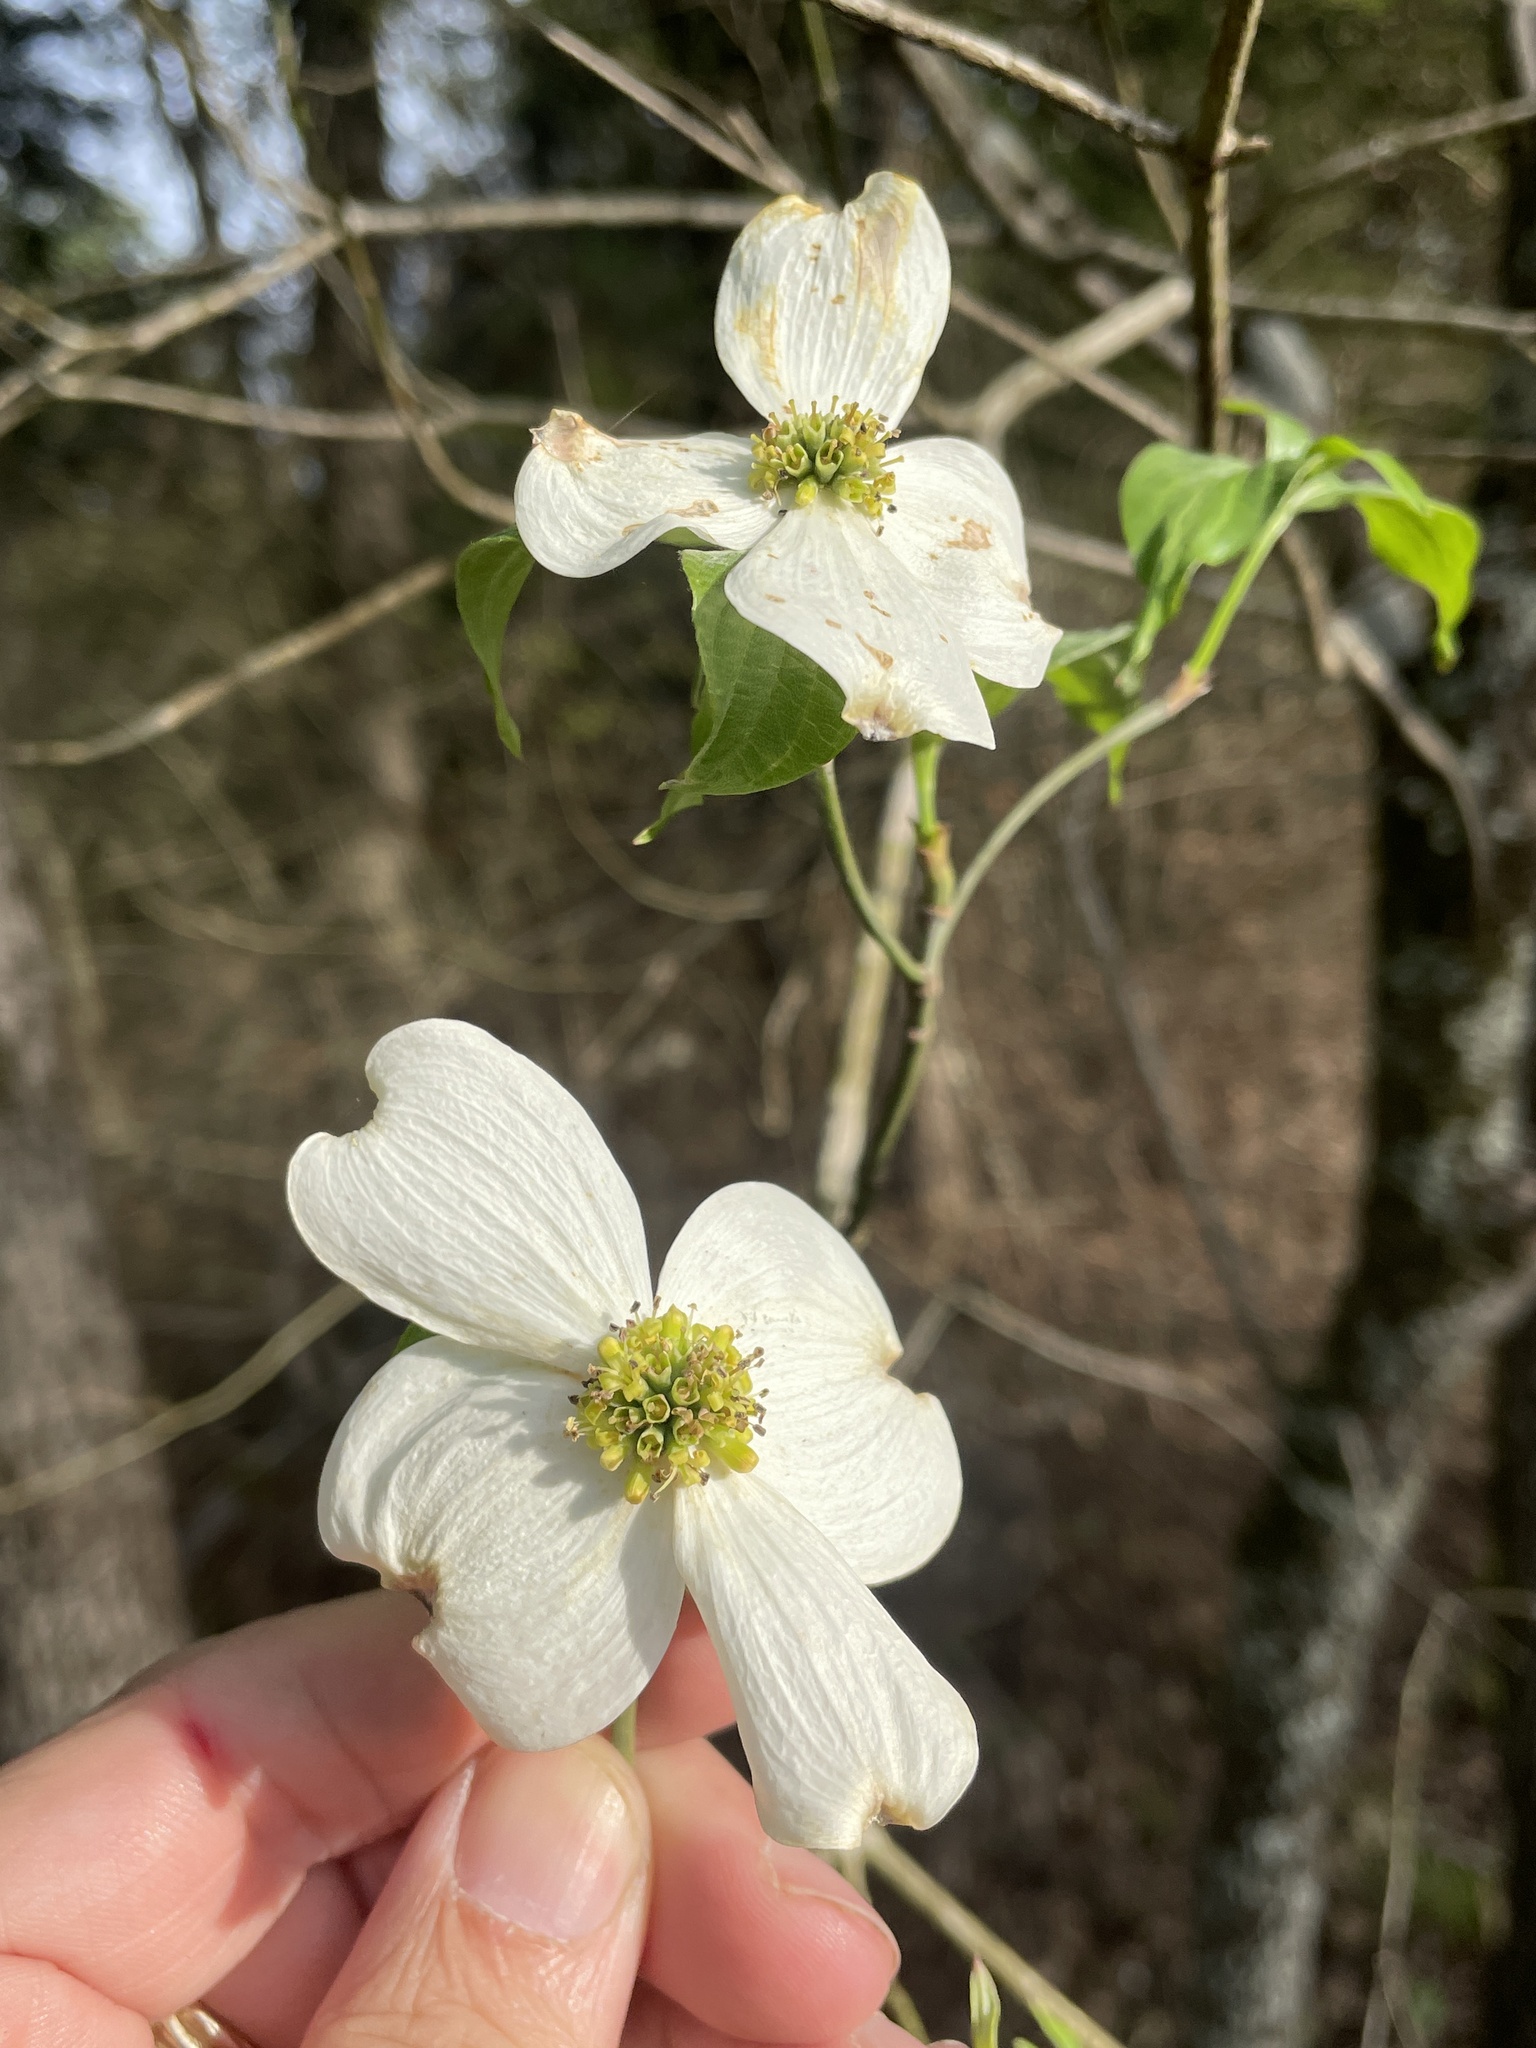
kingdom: Plantae
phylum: Tracheophyta
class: Magnoliopsida
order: Cornales
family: Cornaceae
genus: Cornus
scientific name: Cornus florida
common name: Flowering dogwood
